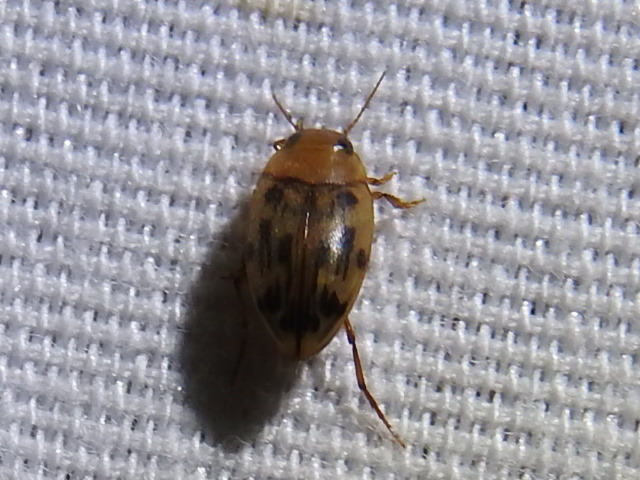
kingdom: Animalia
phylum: Arthropoda
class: Insecta
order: Coleoptera
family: Dytiscidae
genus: Neoporus
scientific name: Neoporus dimidiatus
